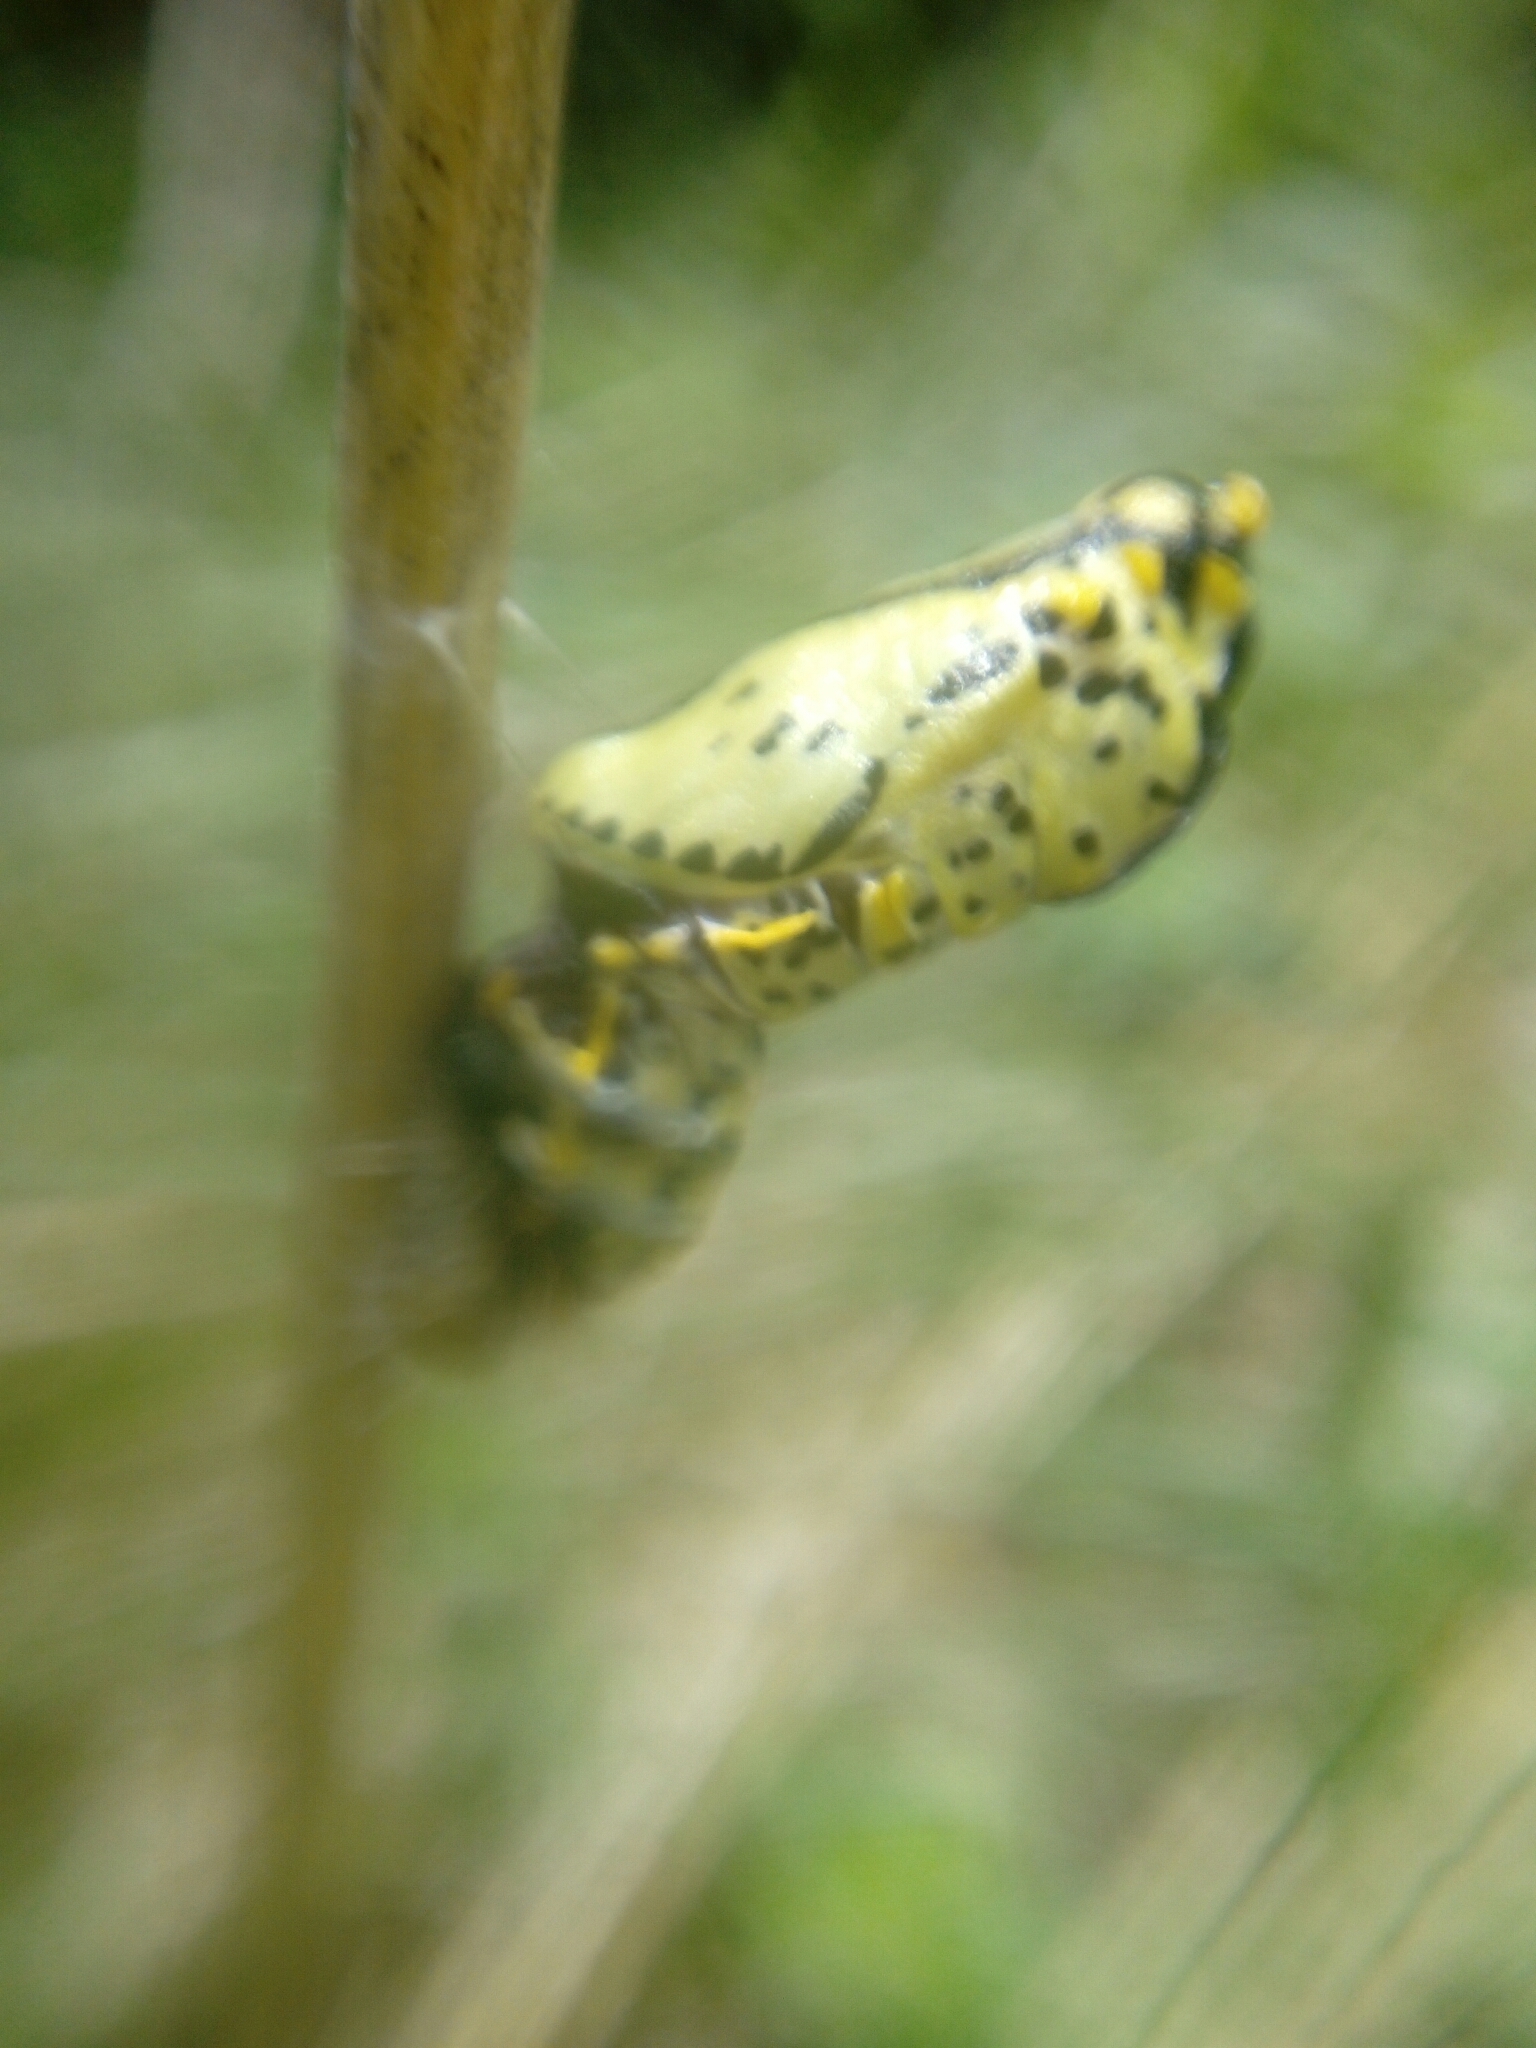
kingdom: Animalia
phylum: Arthropoda
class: Insecta
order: Lepidoptera
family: Pieridae
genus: Aporia
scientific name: Aporia crataegi
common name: Black-veined white
